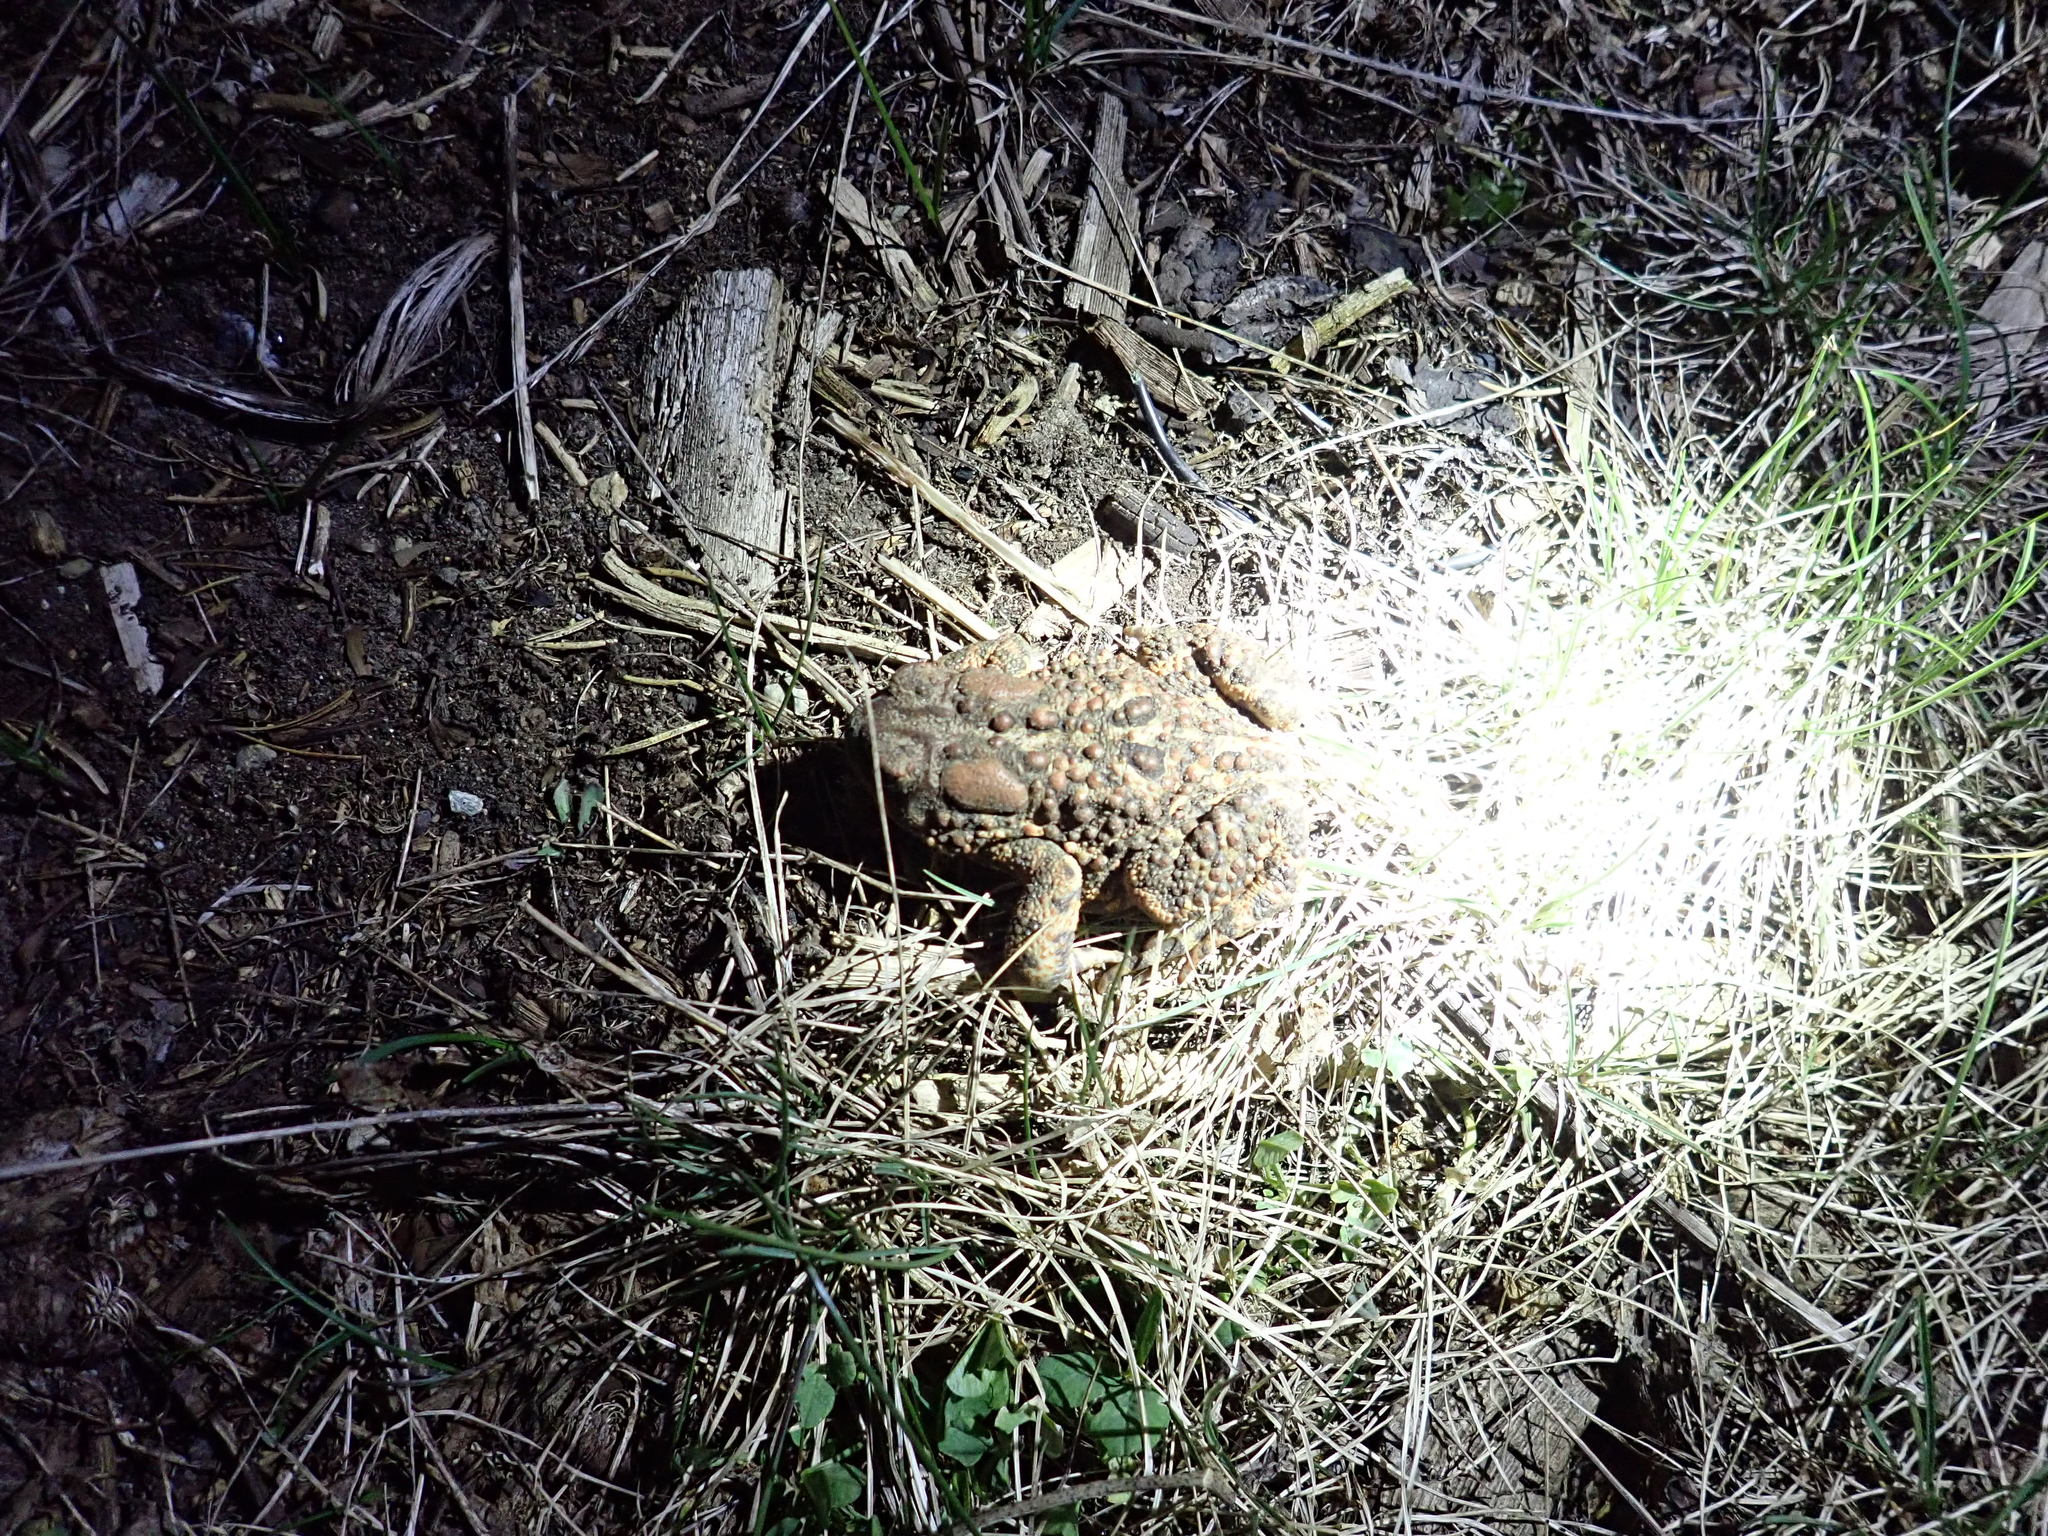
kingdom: Animalia
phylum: Chordata
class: Amphibia
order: Anura
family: Bufonidae
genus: Anaxyrus
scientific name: Anaxyrus americanus
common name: American toad
